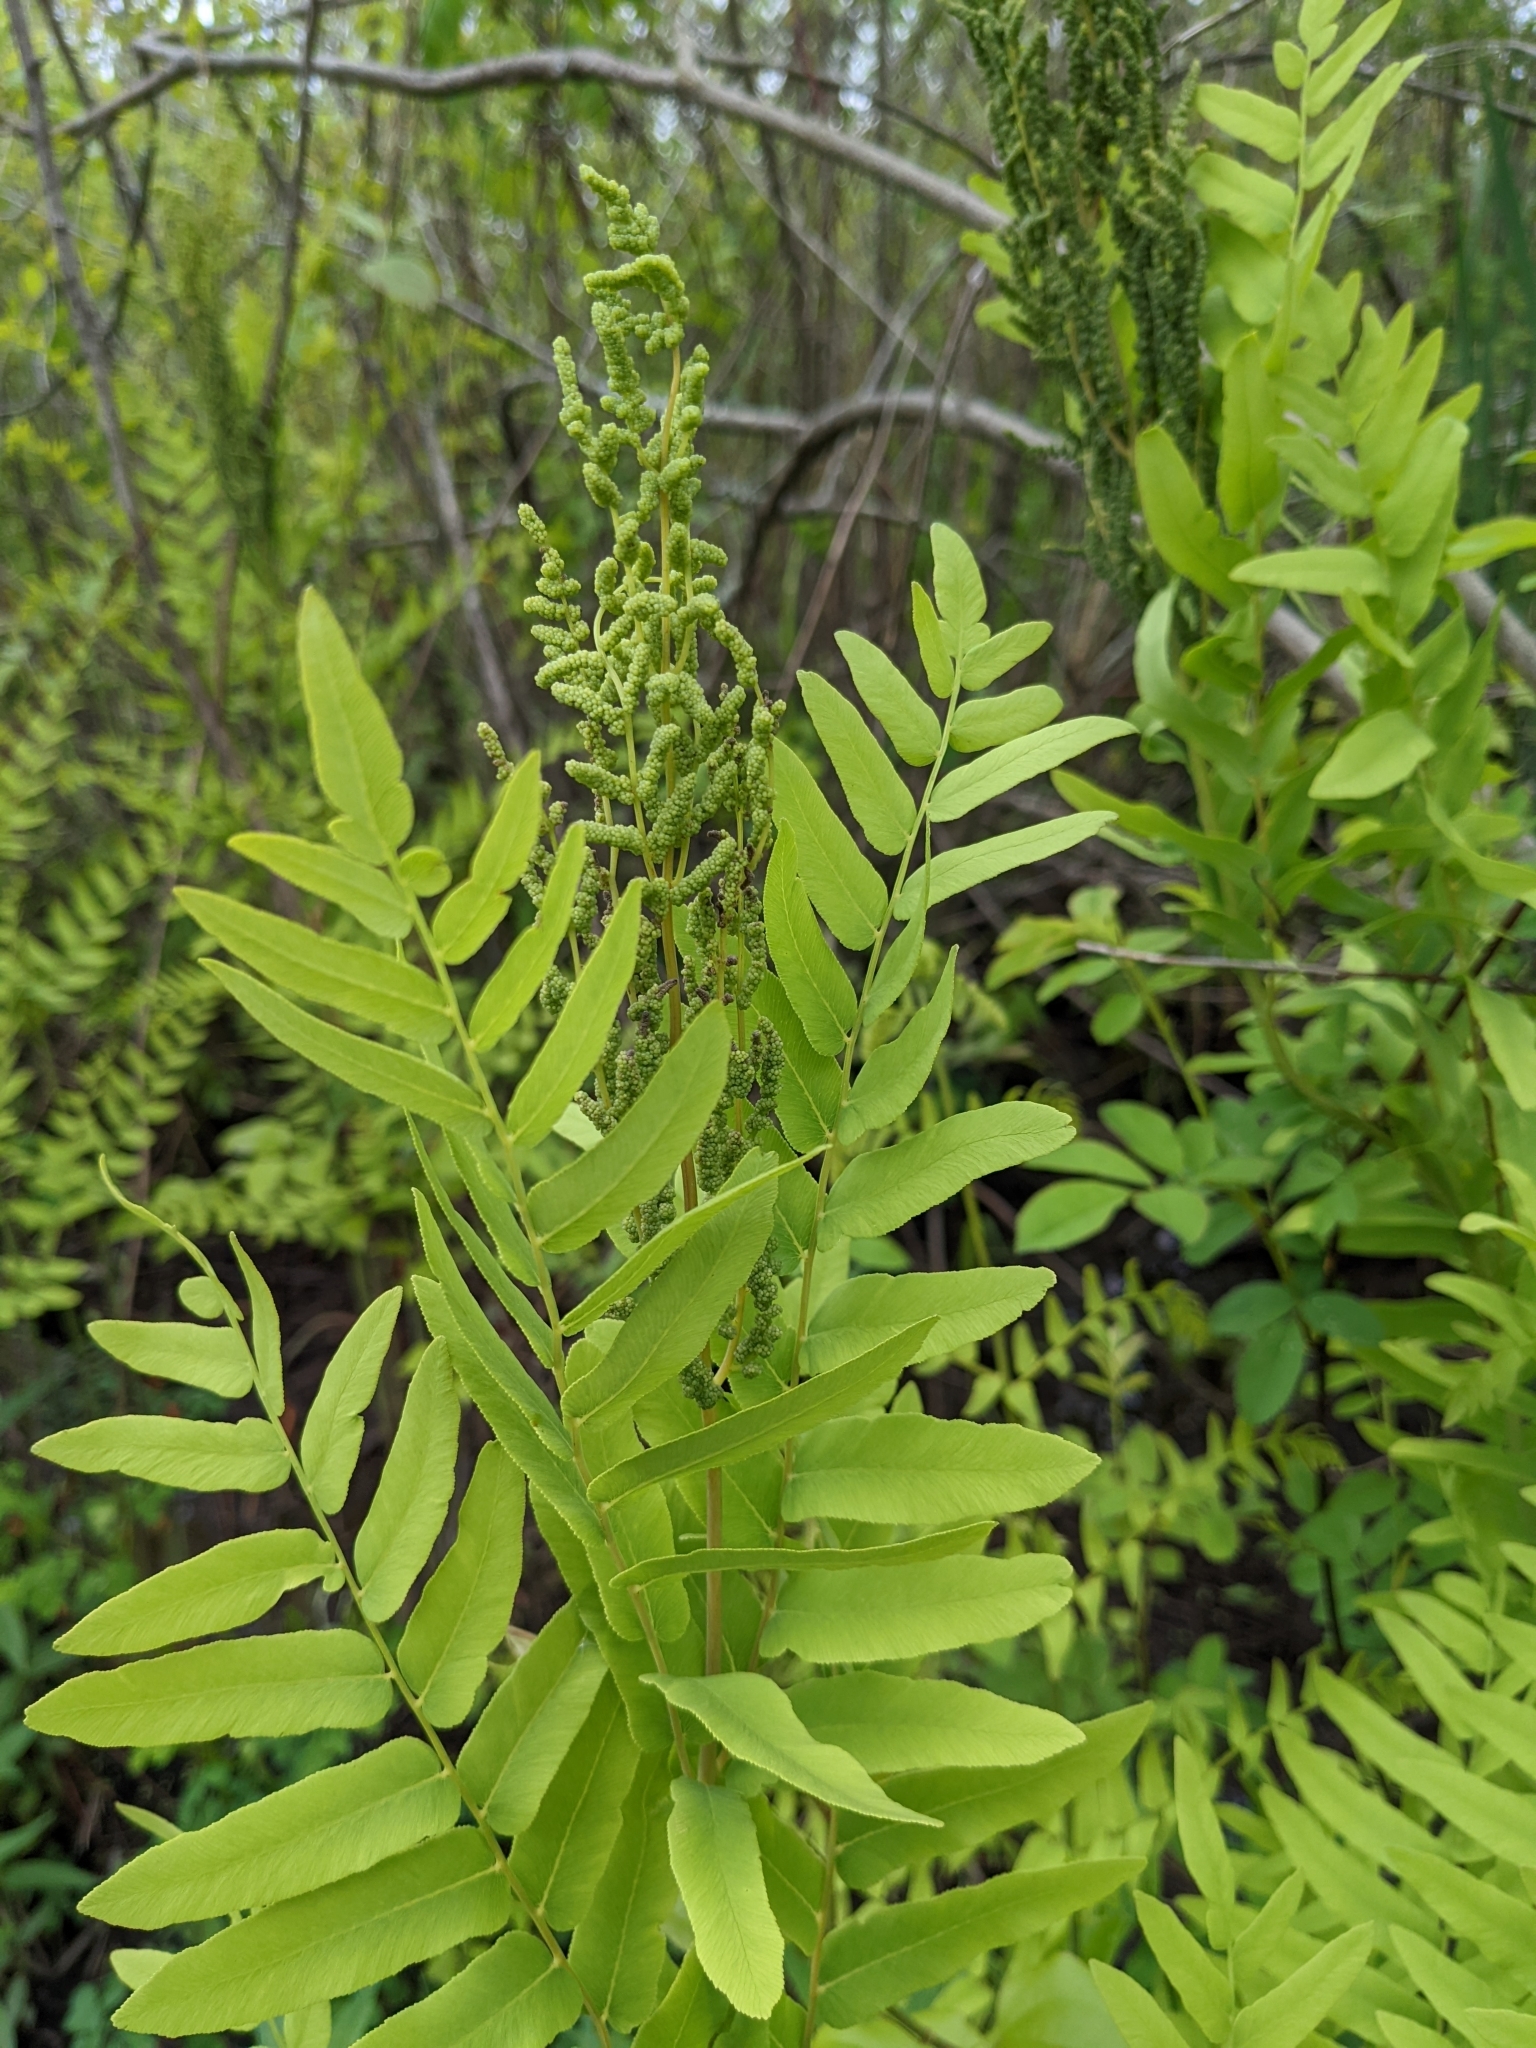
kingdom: Plantae
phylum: Tracheophyta
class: Polypodiopsida
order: Osmundales
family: Osmundaceae
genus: Osmunda
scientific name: Osmunda spectabilis
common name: American royal fern
